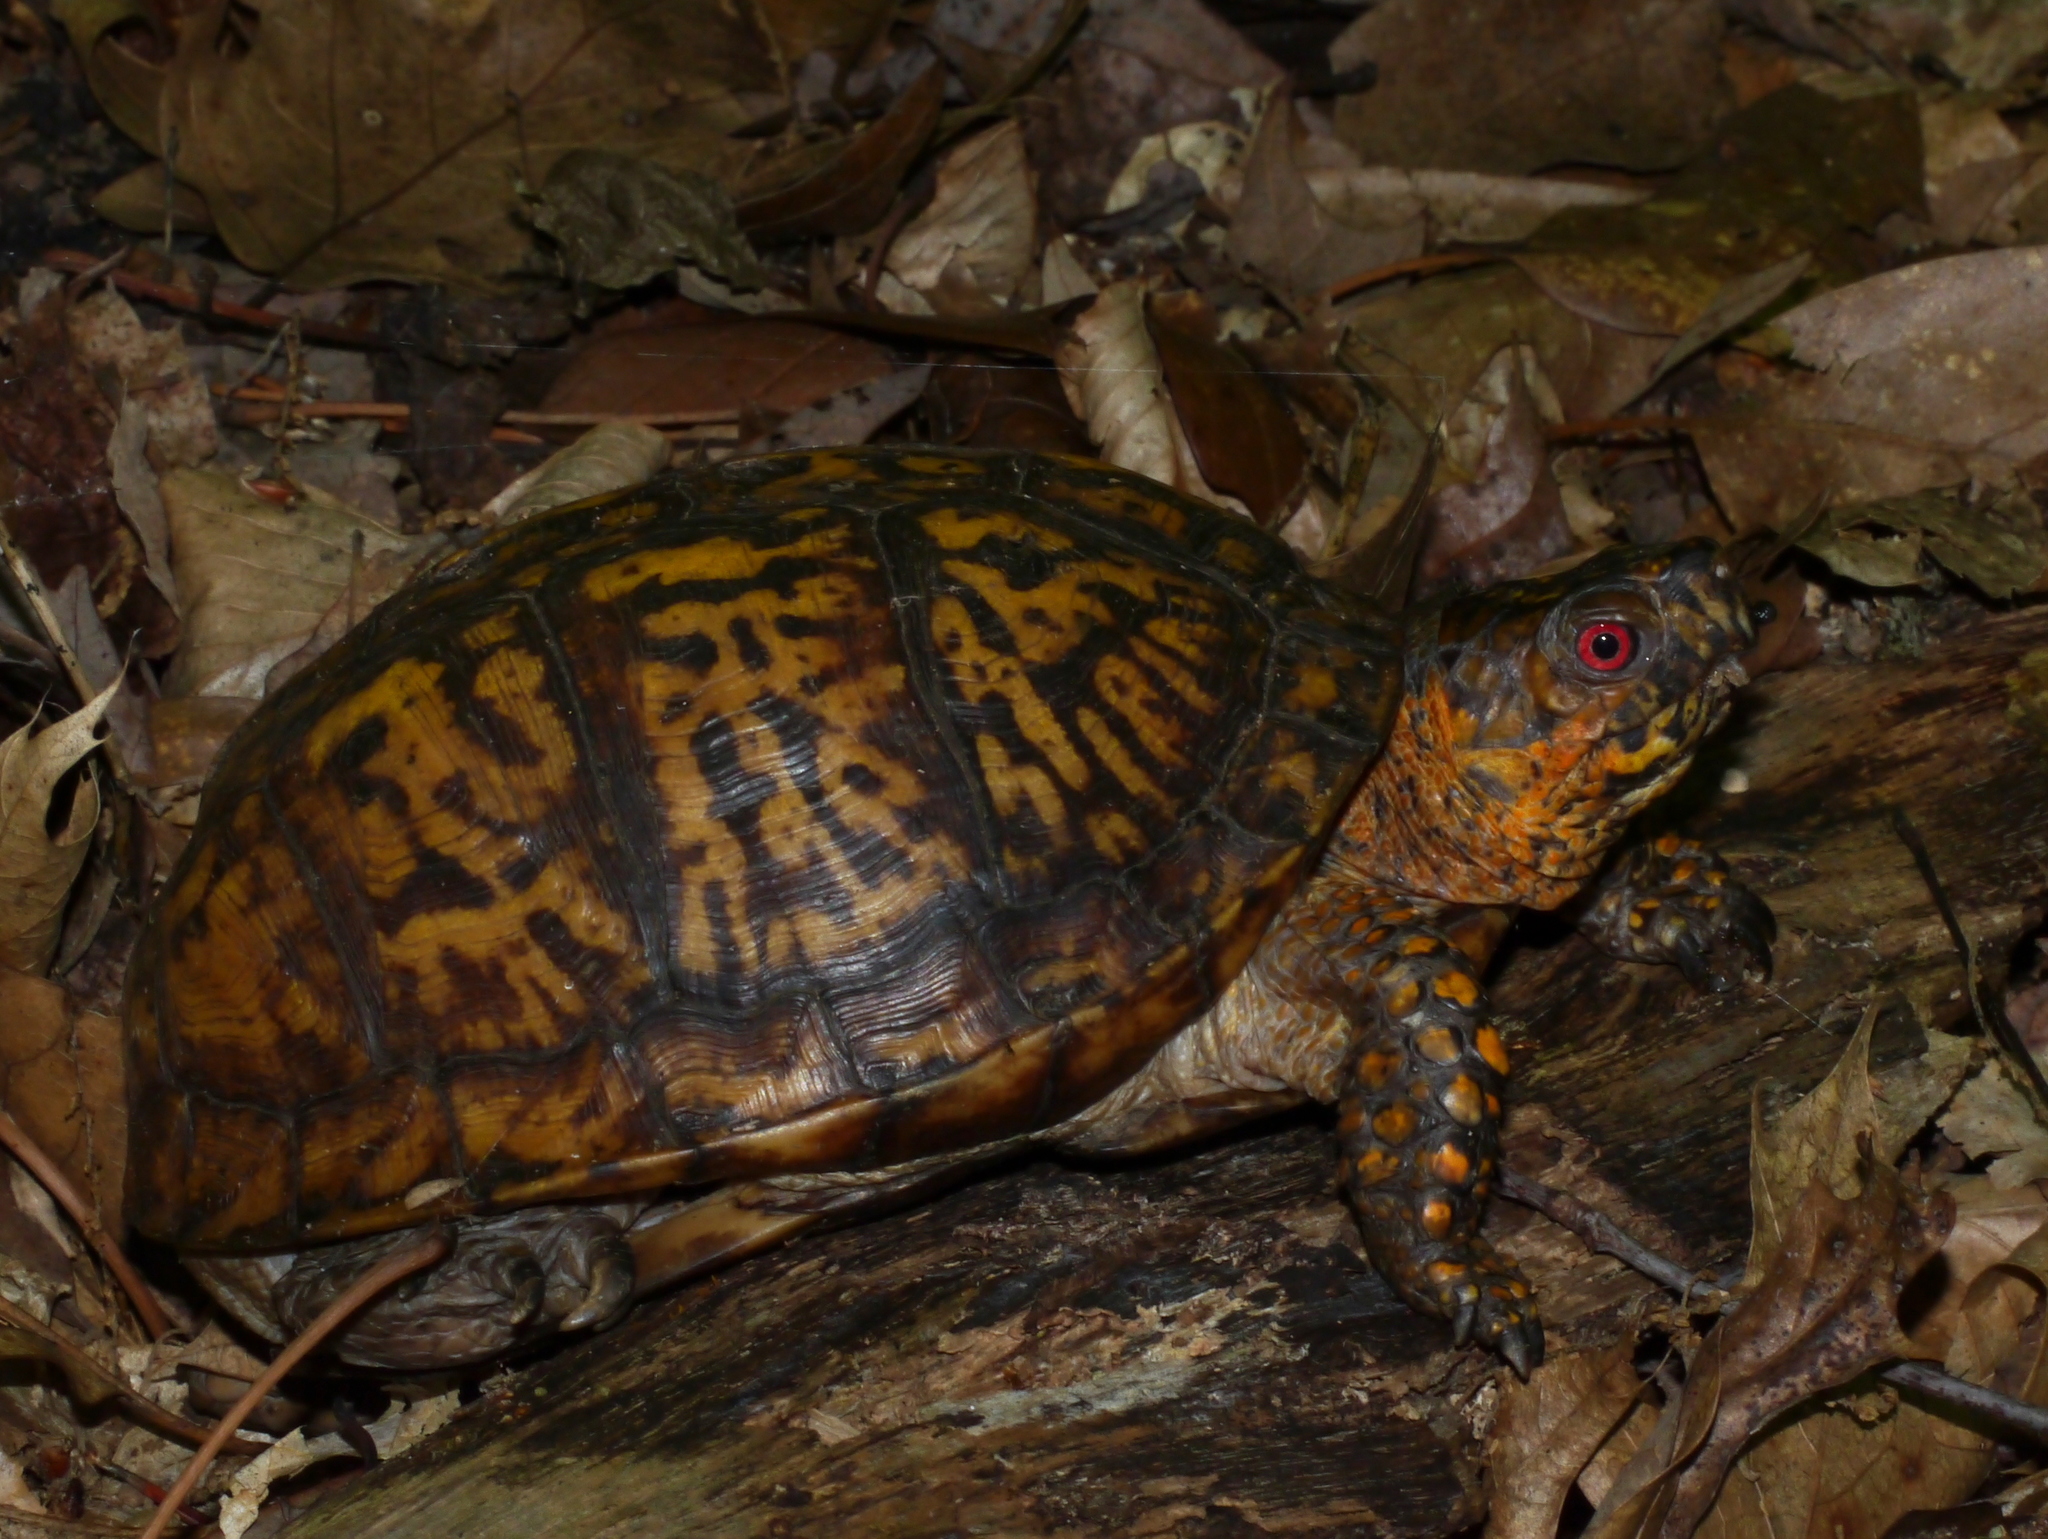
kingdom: Animalia
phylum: Chordata
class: Testudines
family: Emydidae
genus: Terrapene
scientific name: Terrapene carolina
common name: Common box turtle
